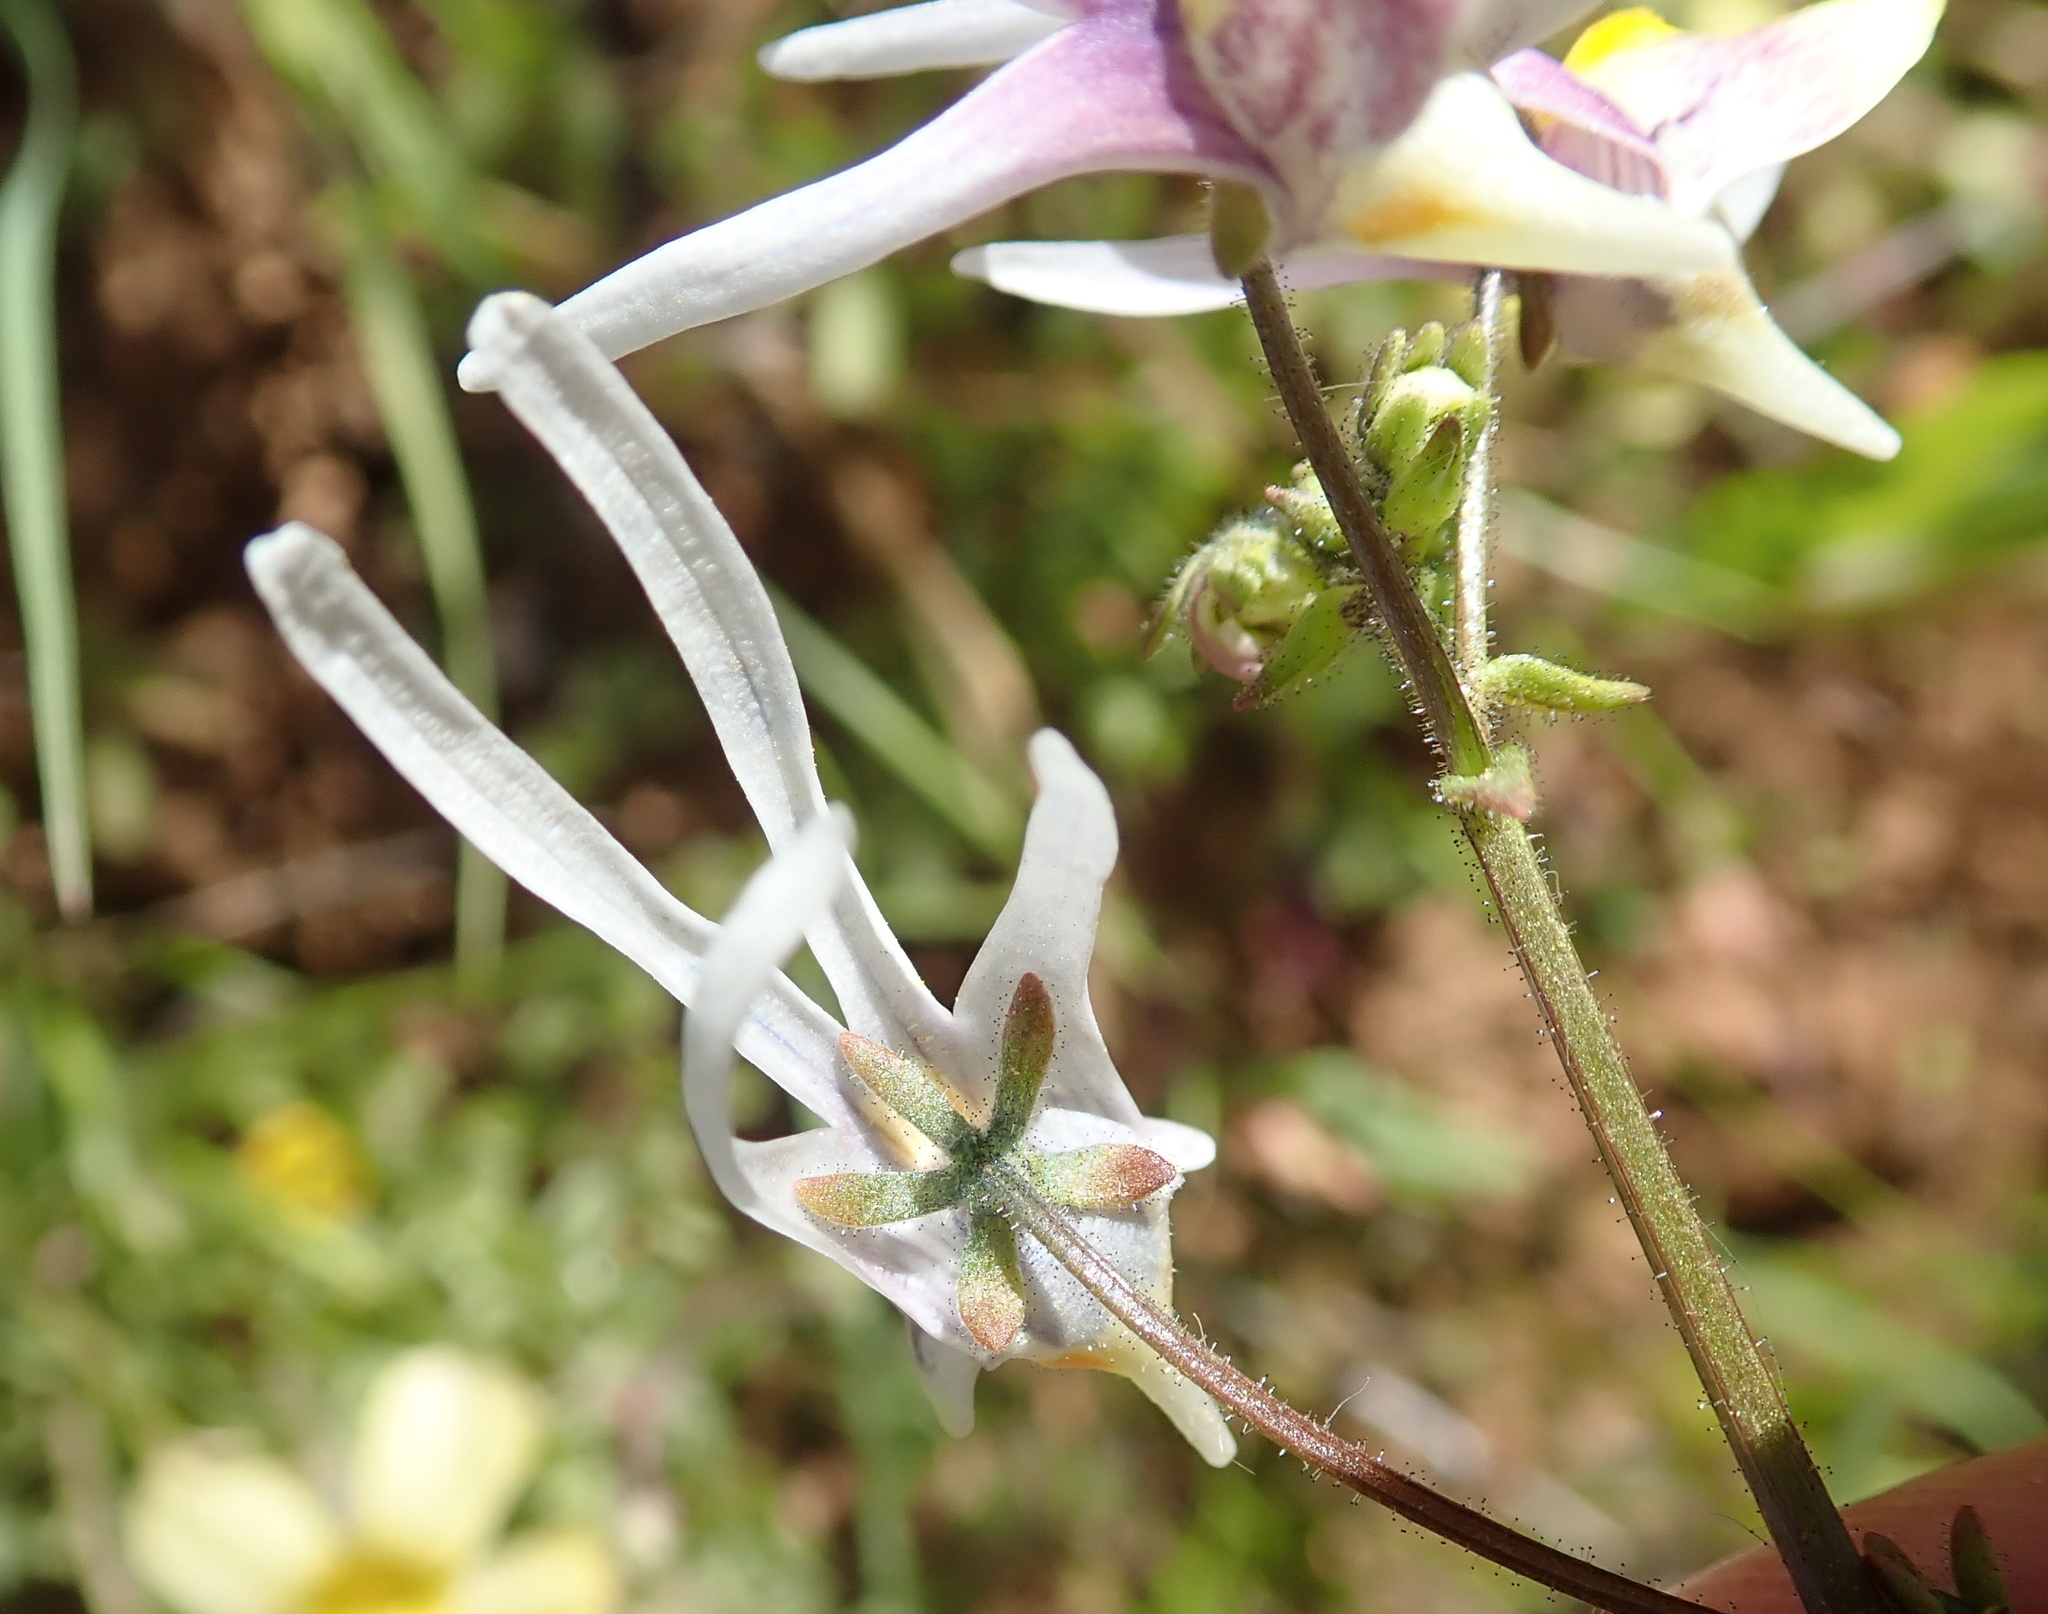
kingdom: Plantae
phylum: Tracheophyta
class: Magnoliopsida
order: Lamiales
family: Scrophulariaceae
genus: Nemesia
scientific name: Nemesia cheiranthus
